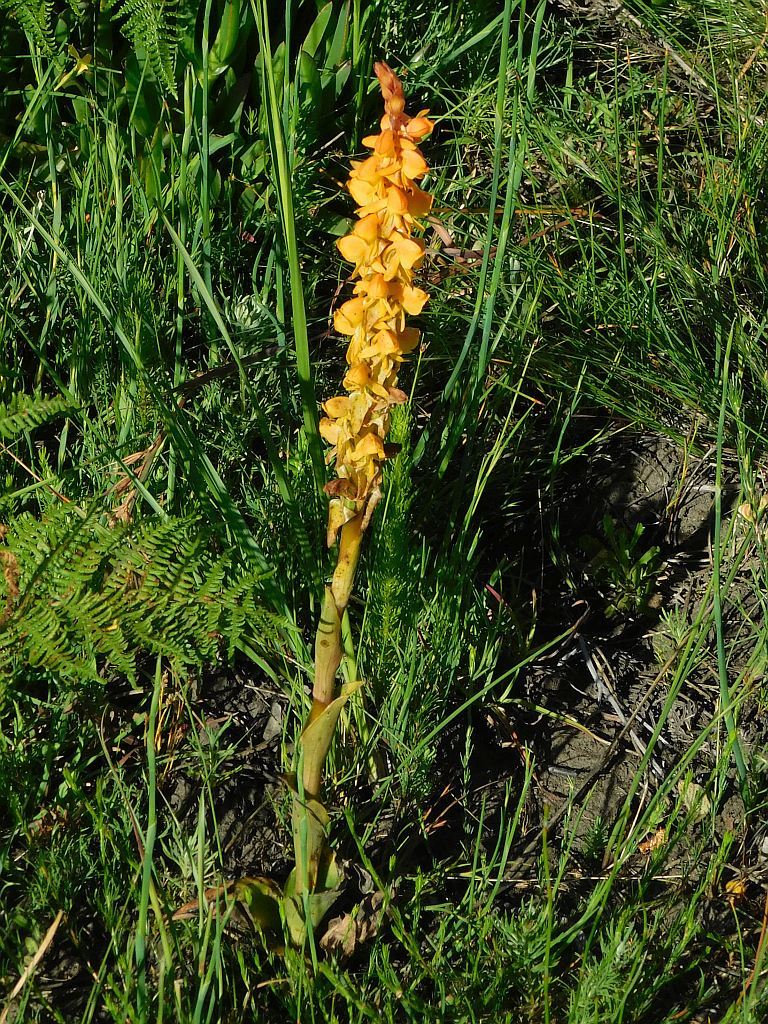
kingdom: Plantae
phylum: Tracheophyta
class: Liliopsida
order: Asparagales
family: Orchidaceae
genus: Satyrium
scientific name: Satyrium coriifolium
